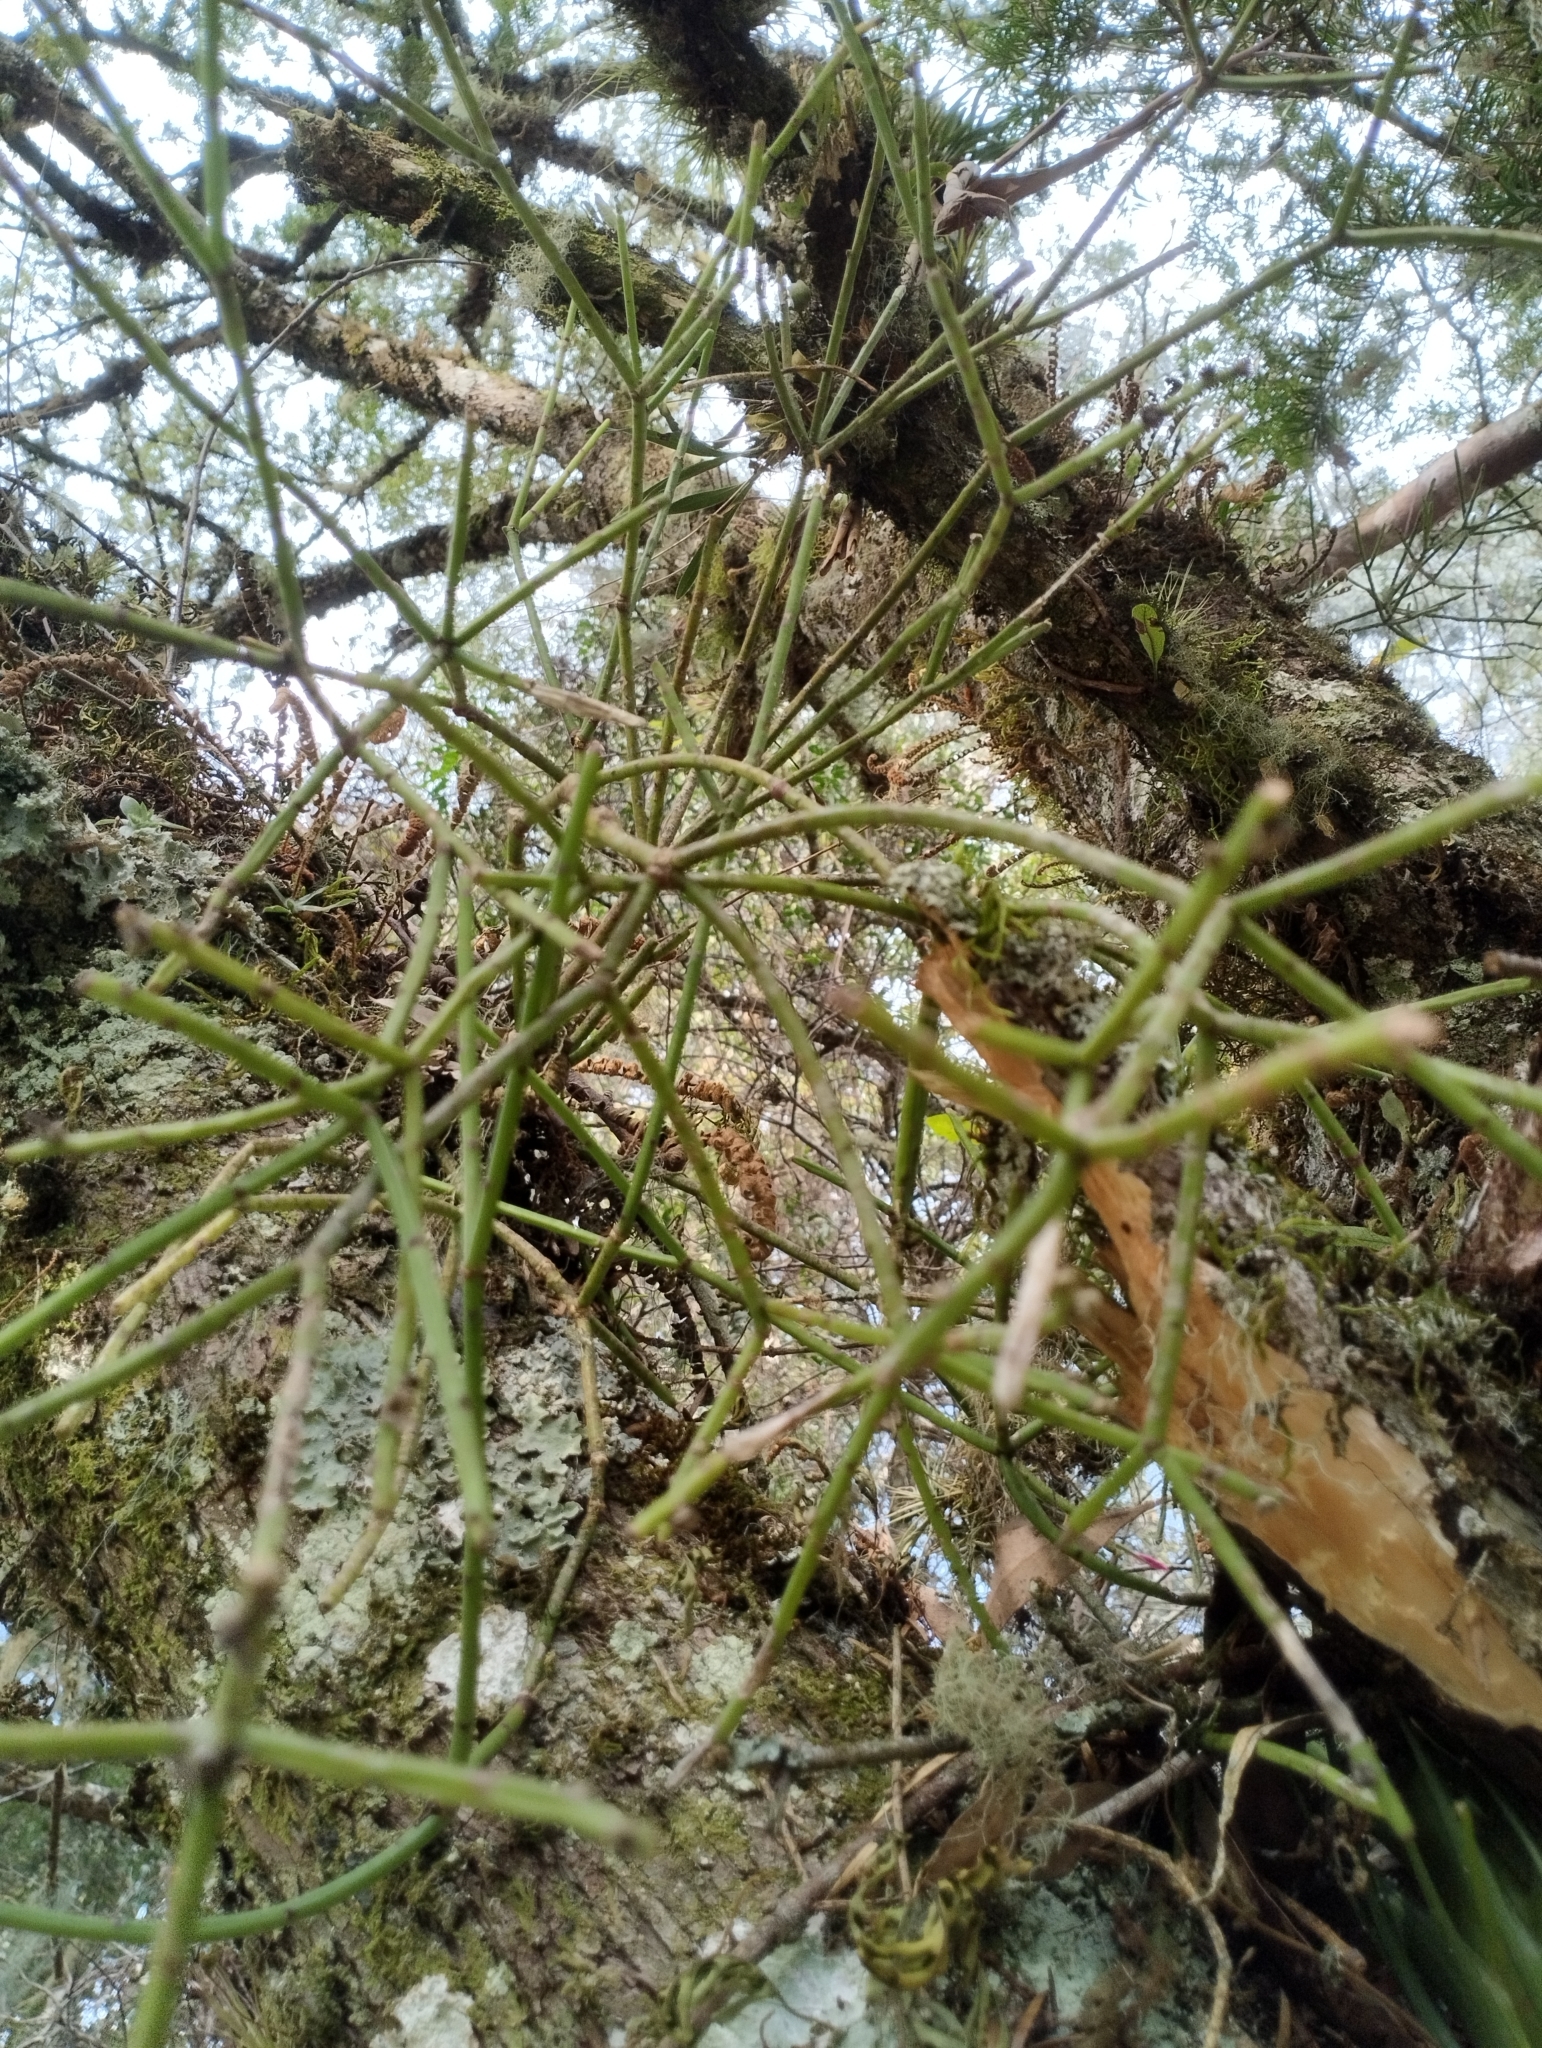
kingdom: Plantae
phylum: Tracheophyta
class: Magnoliopsida
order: Caryophyllales
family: Cactaceae
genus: Rhipsalis
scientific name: Rhipsalis floccosa
